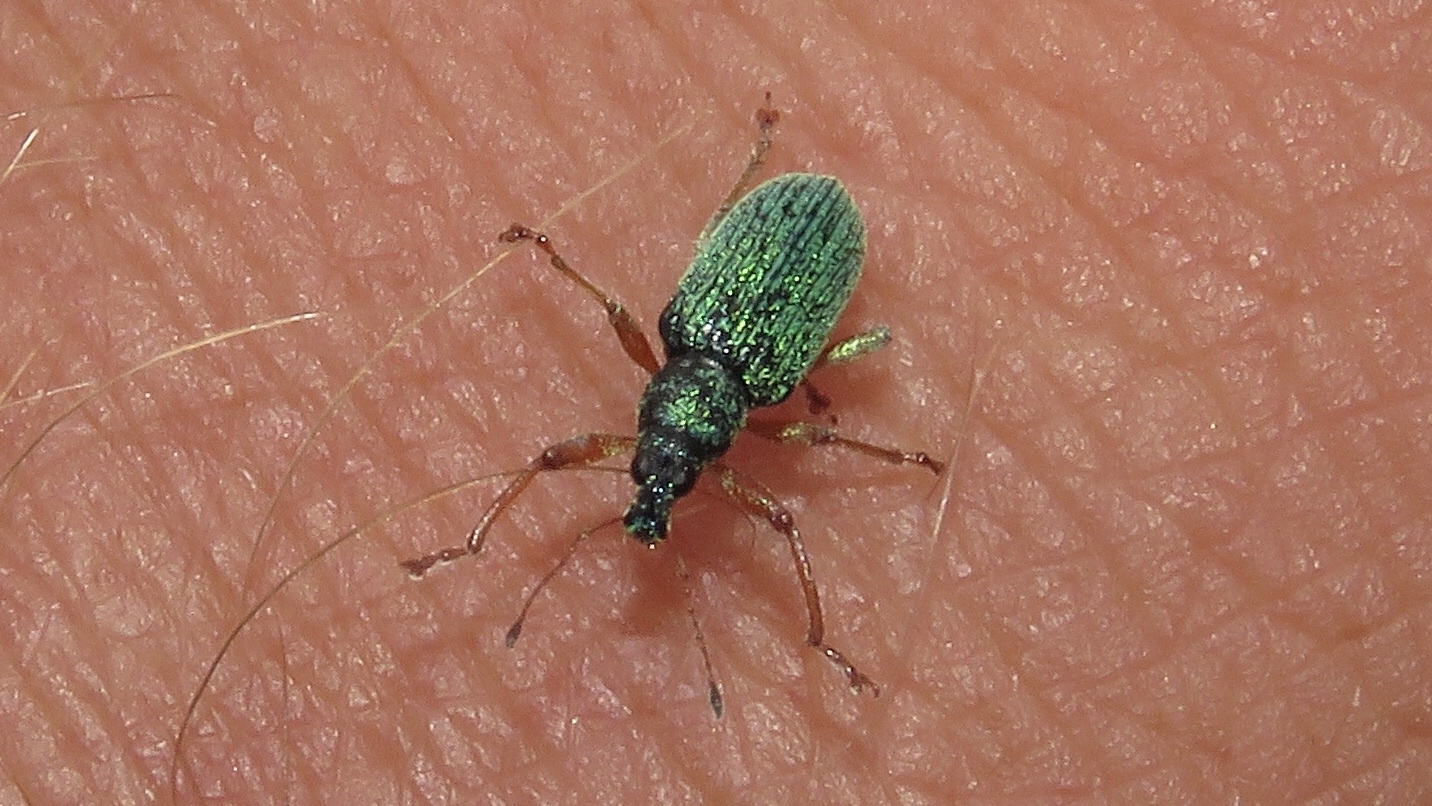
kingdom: Animalia
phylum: Arthropoda
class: Insecta
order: Coleoptera
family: Curculionidae
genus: Polydrusus
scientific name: Polydrusus formosus
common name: Weevil
